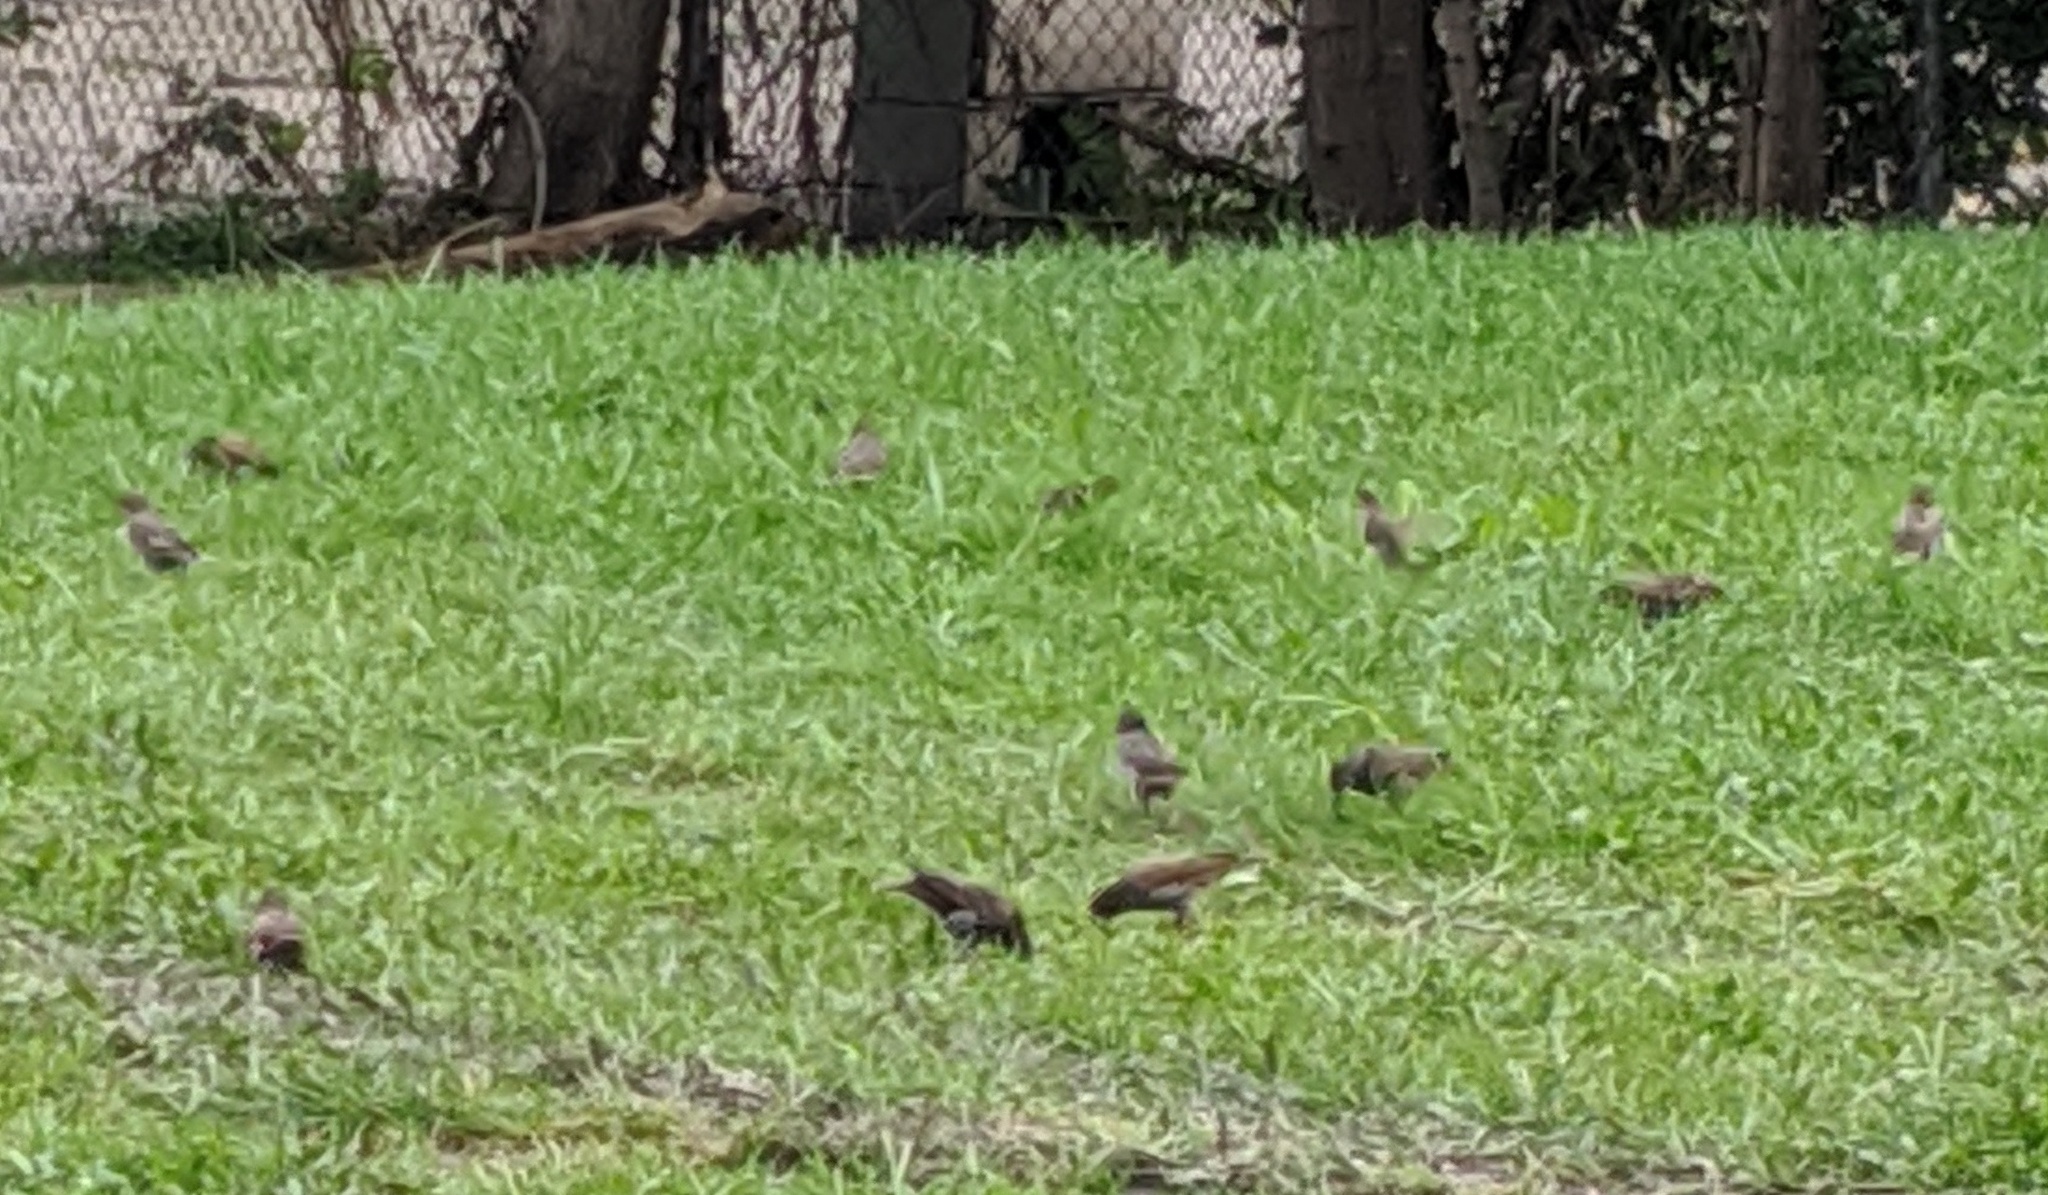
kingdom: Animalia
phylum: Chordata
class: Aves
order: Passeriformes
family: Turdidae
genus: Turdus
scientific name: Turdus migratorius
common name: American robin
